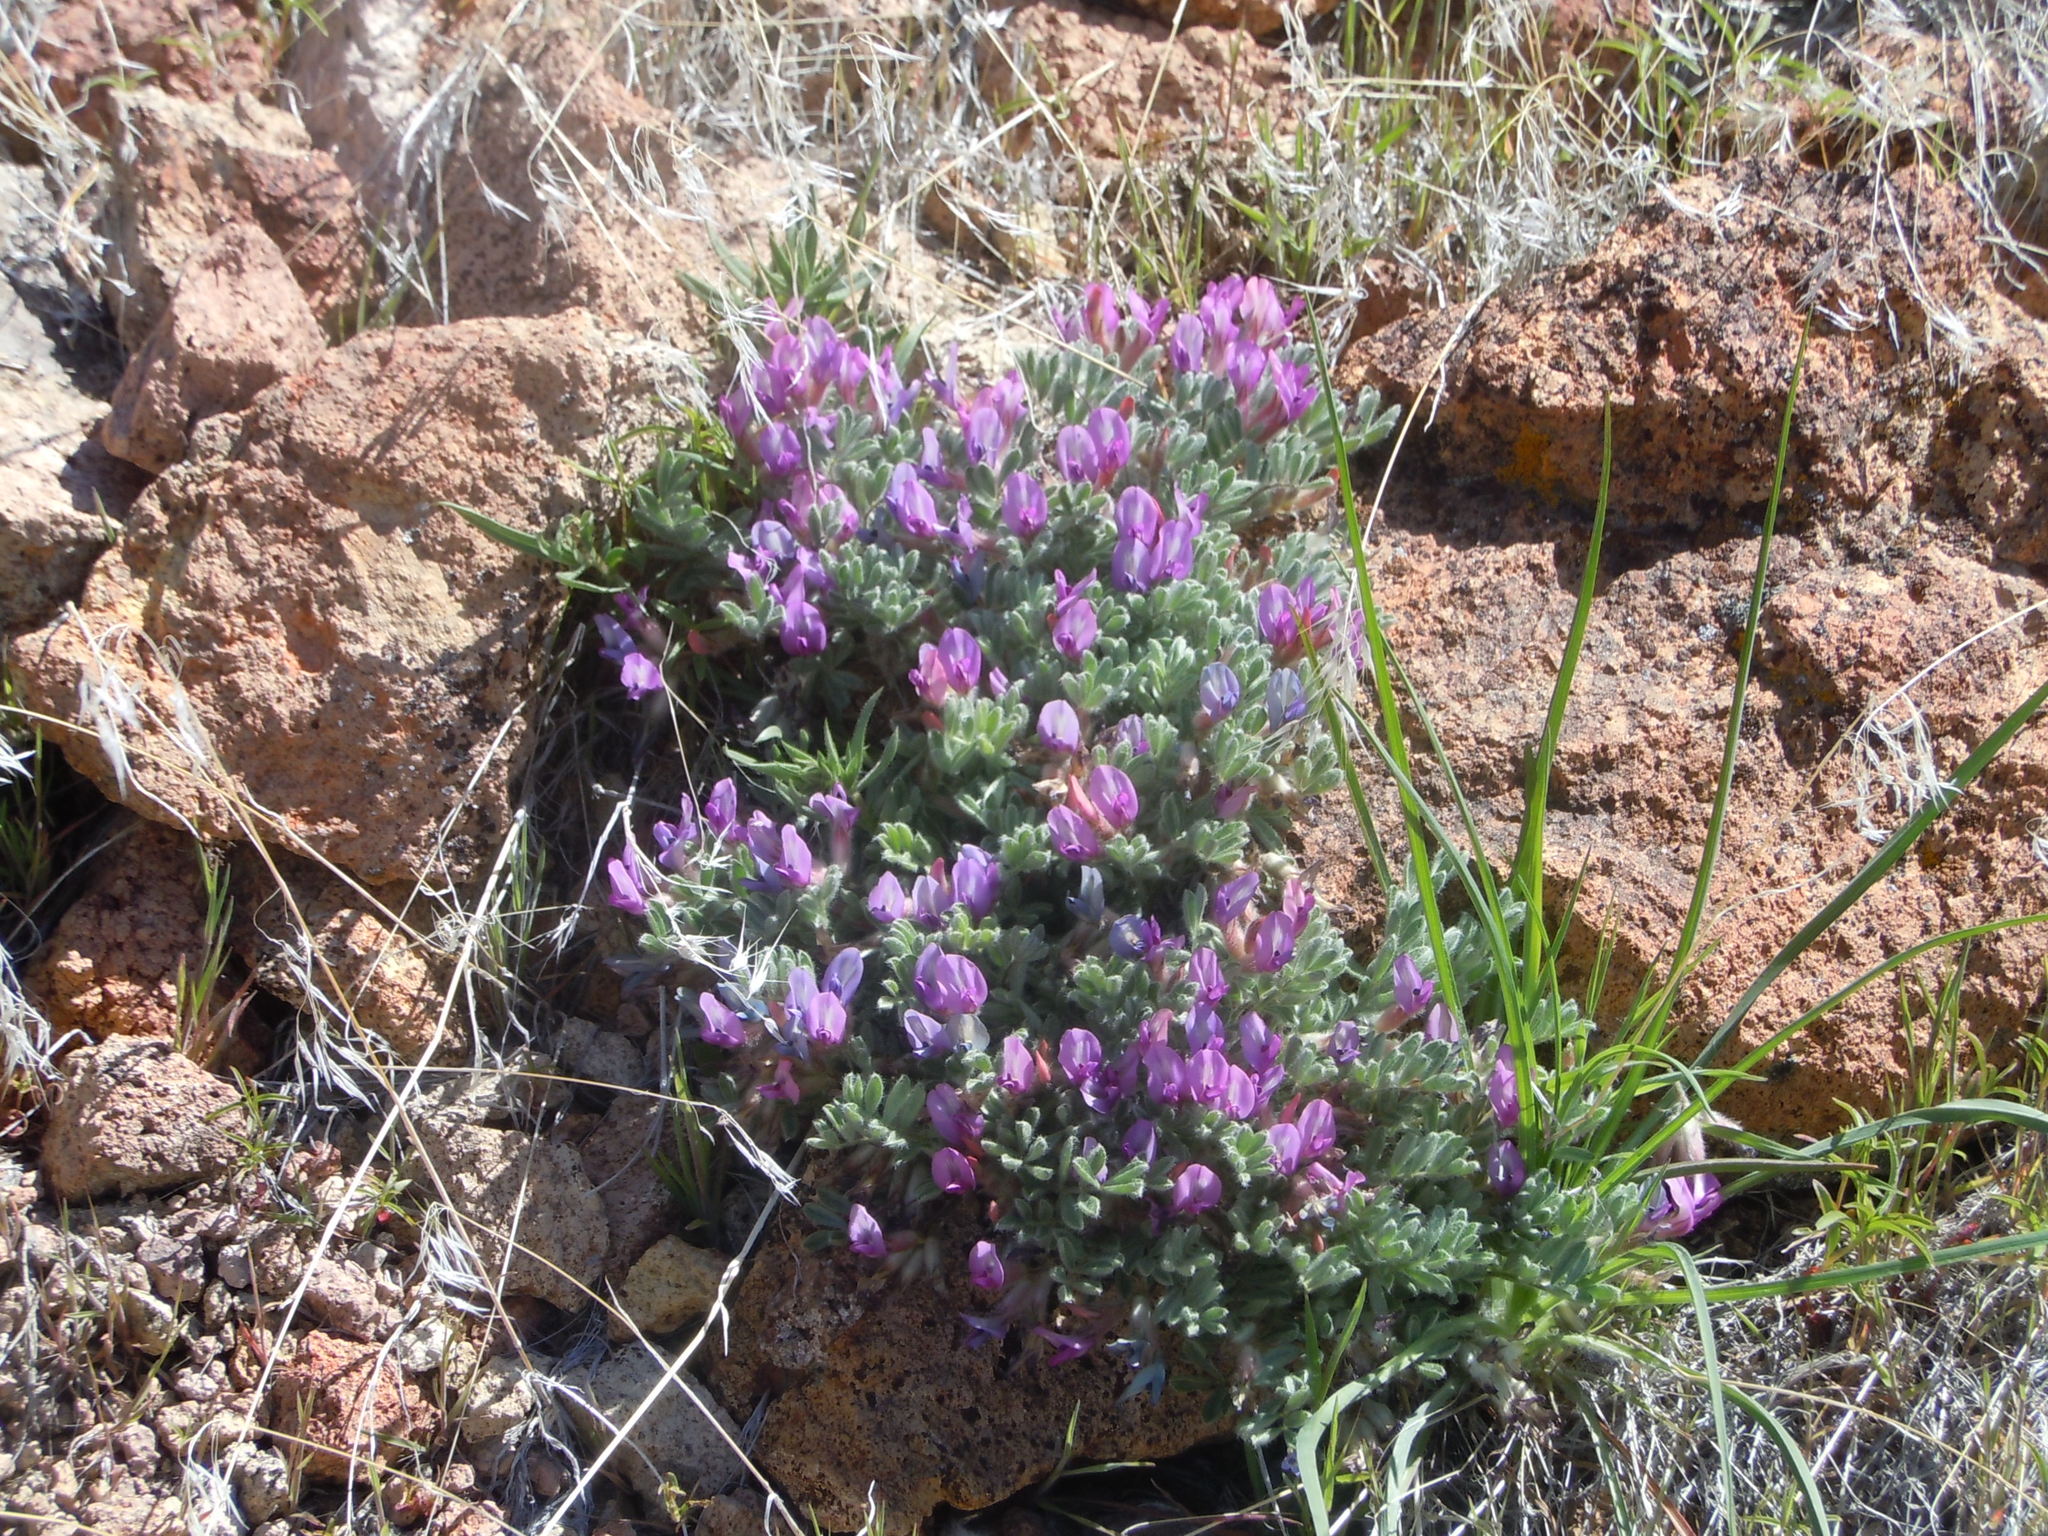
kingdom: Plantae
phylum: Tracheophyta
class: Magnoliopsida
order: Fabales
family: Fabaceae
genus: Astragalus
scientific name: Astragalus purshii
